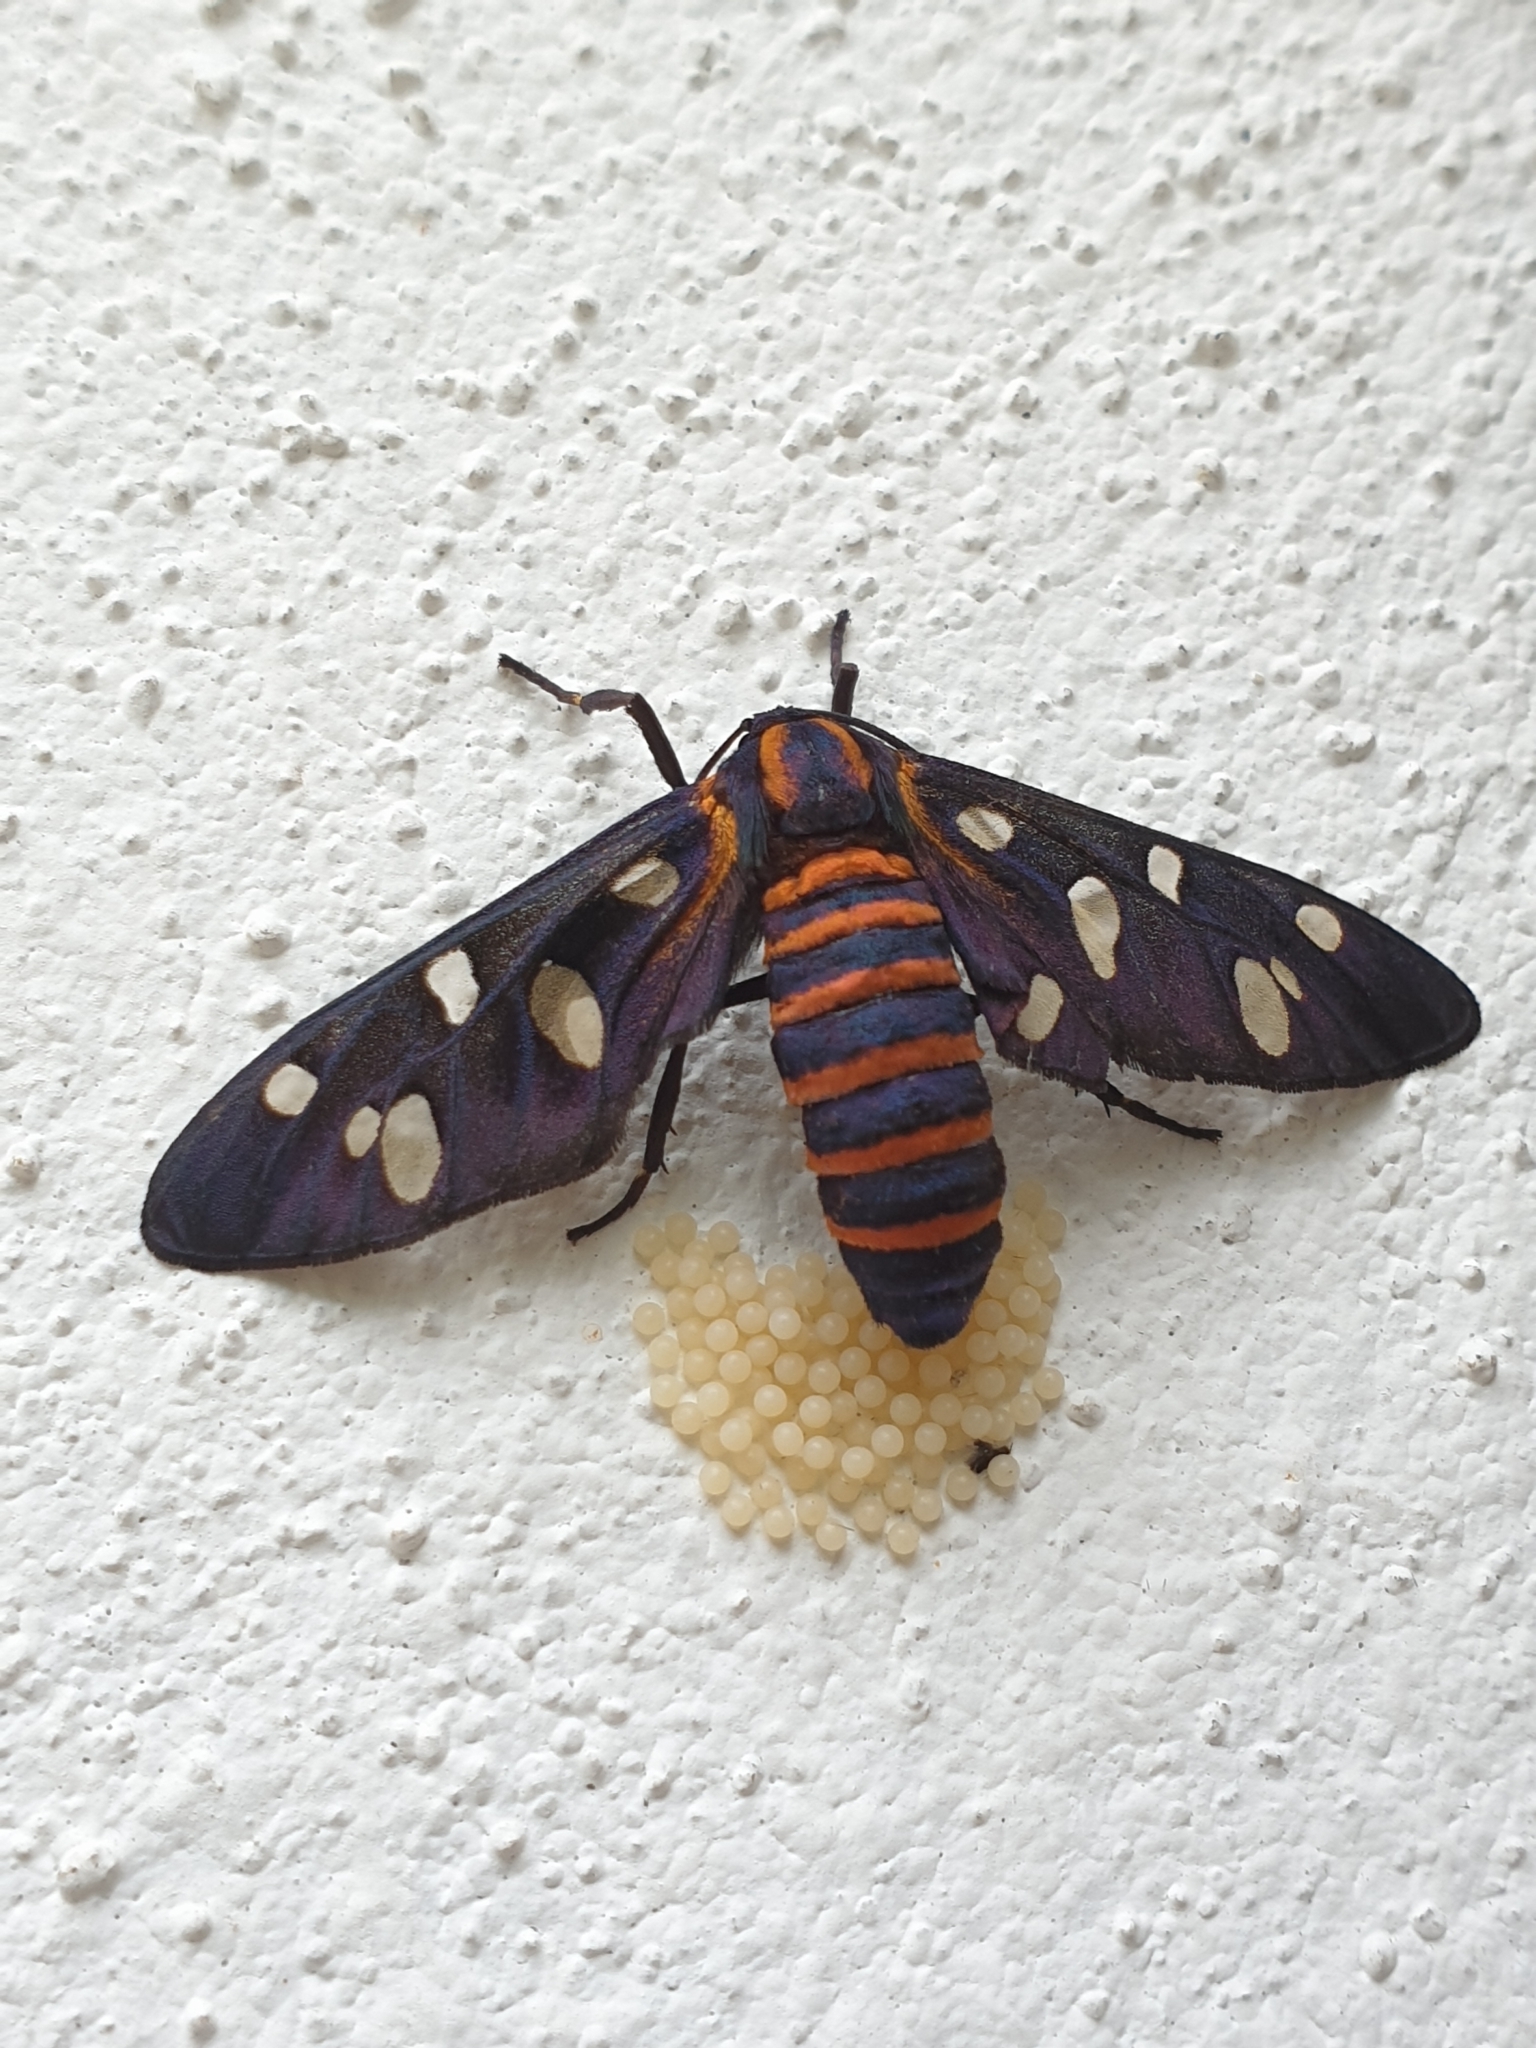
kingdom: Animalia
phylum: Arthropoda
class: Insecta
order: Lepidoptera
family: Erebidae
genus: Amata
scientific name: Amata passalis
